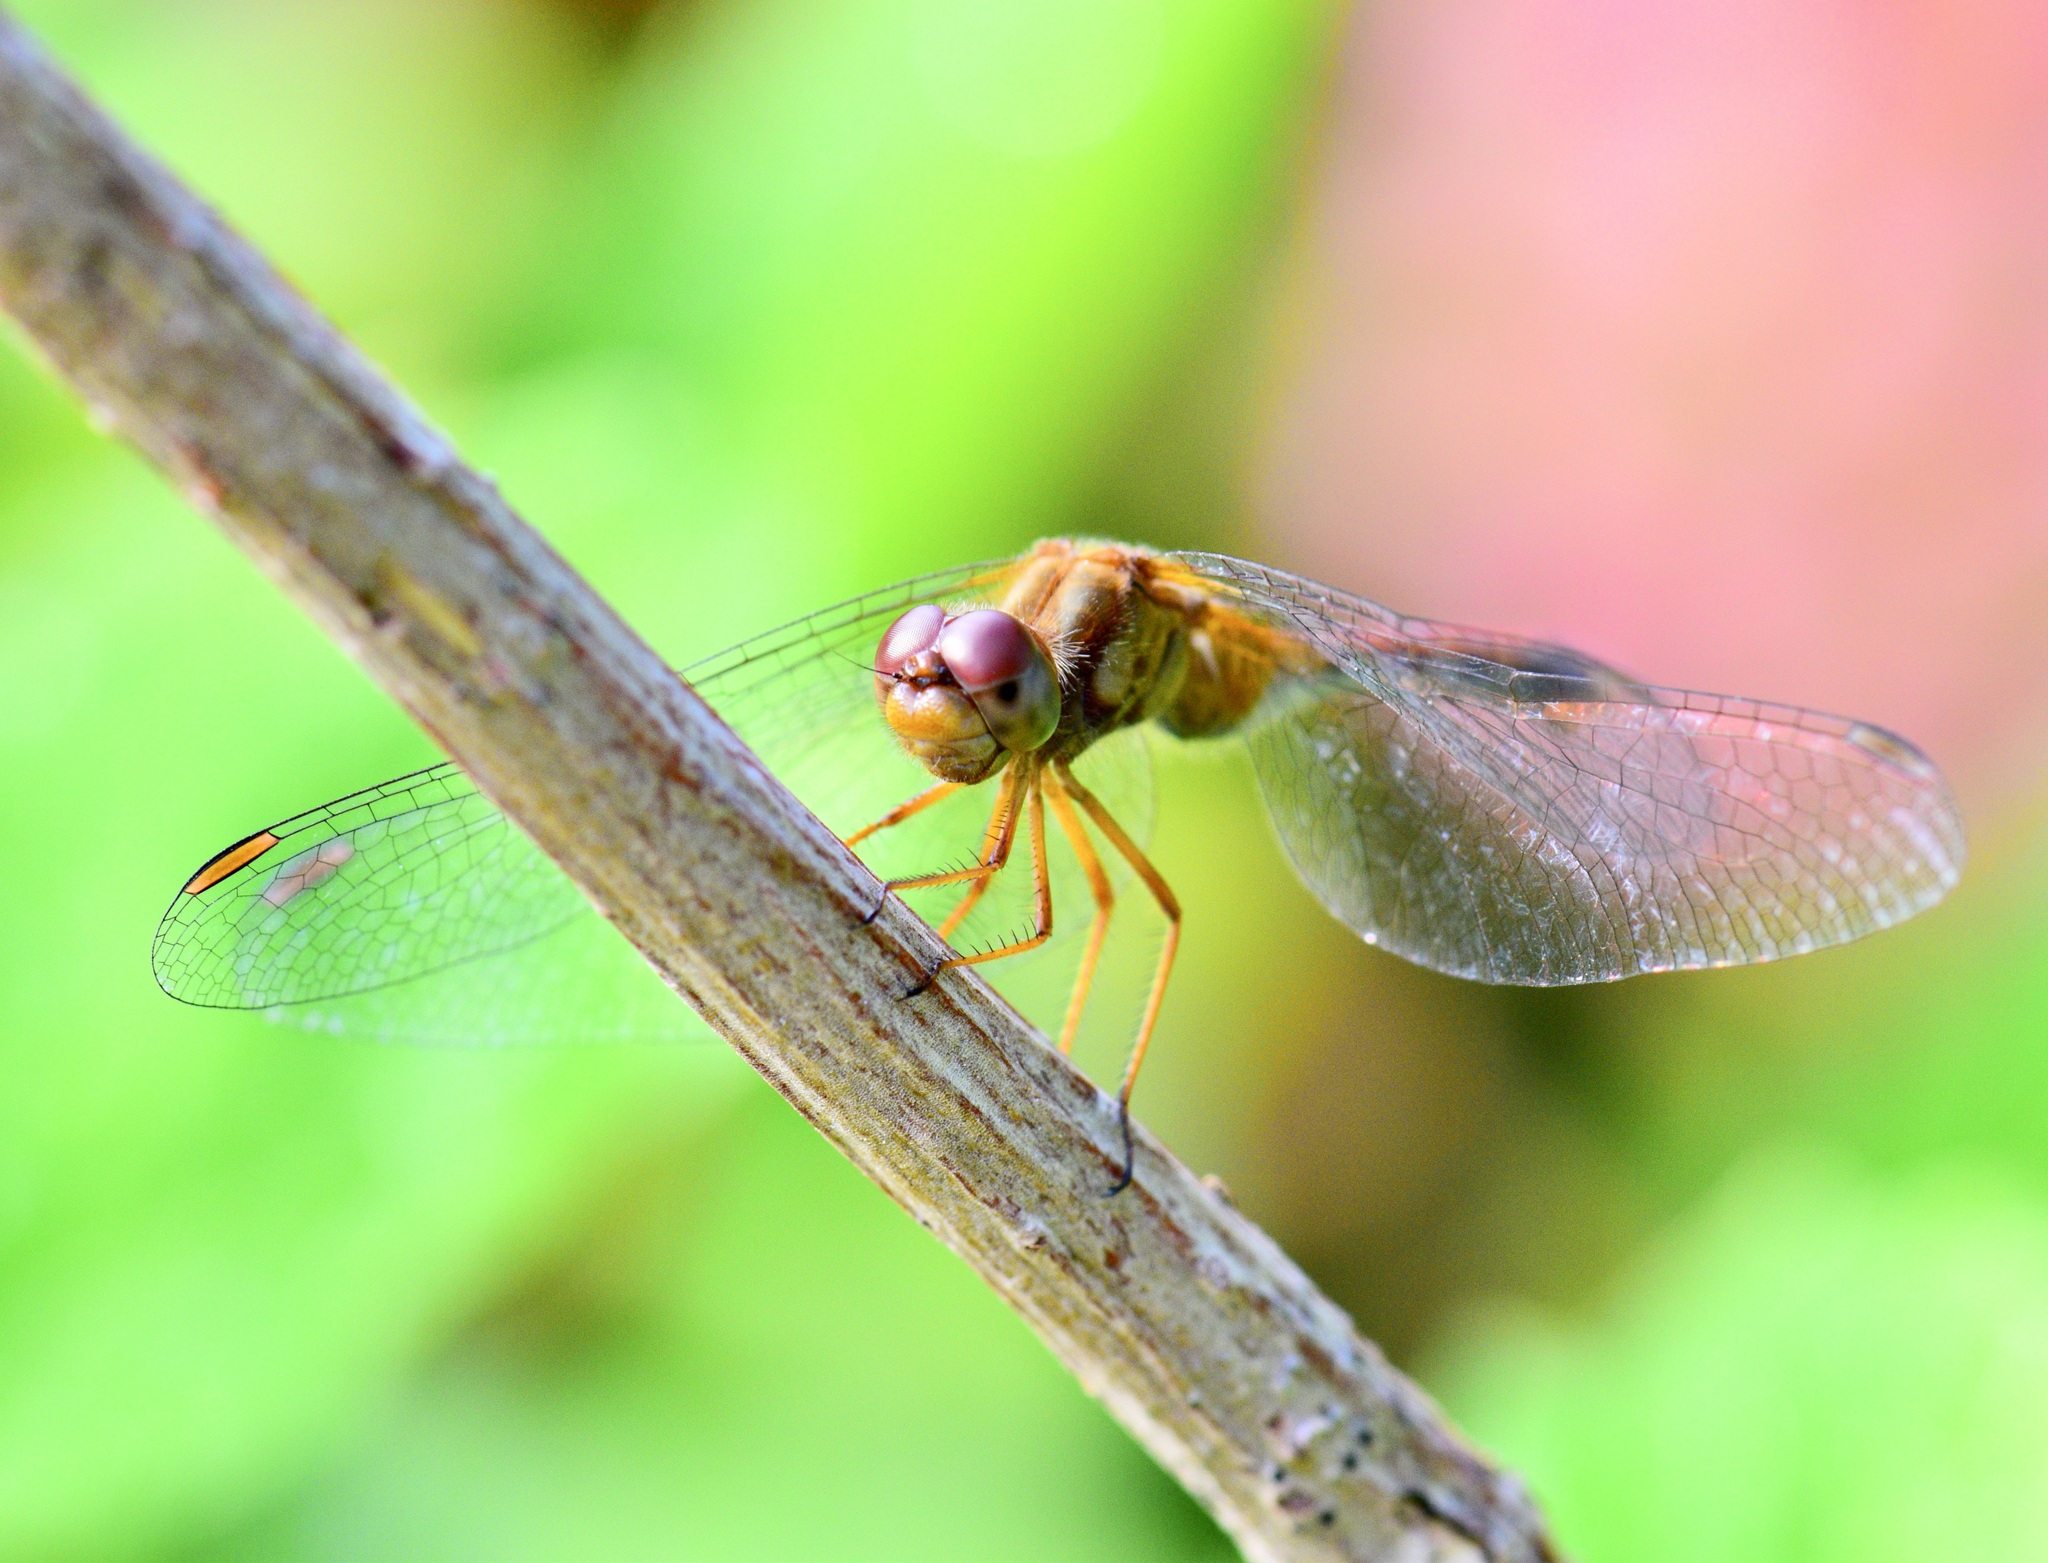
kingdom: Animalia
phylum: Arthropoda
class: Insecta
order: Odonata
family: Libellulidae
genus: Sympetrum
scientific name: Sympetrum vicinum
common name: Autumn meadowhawk
